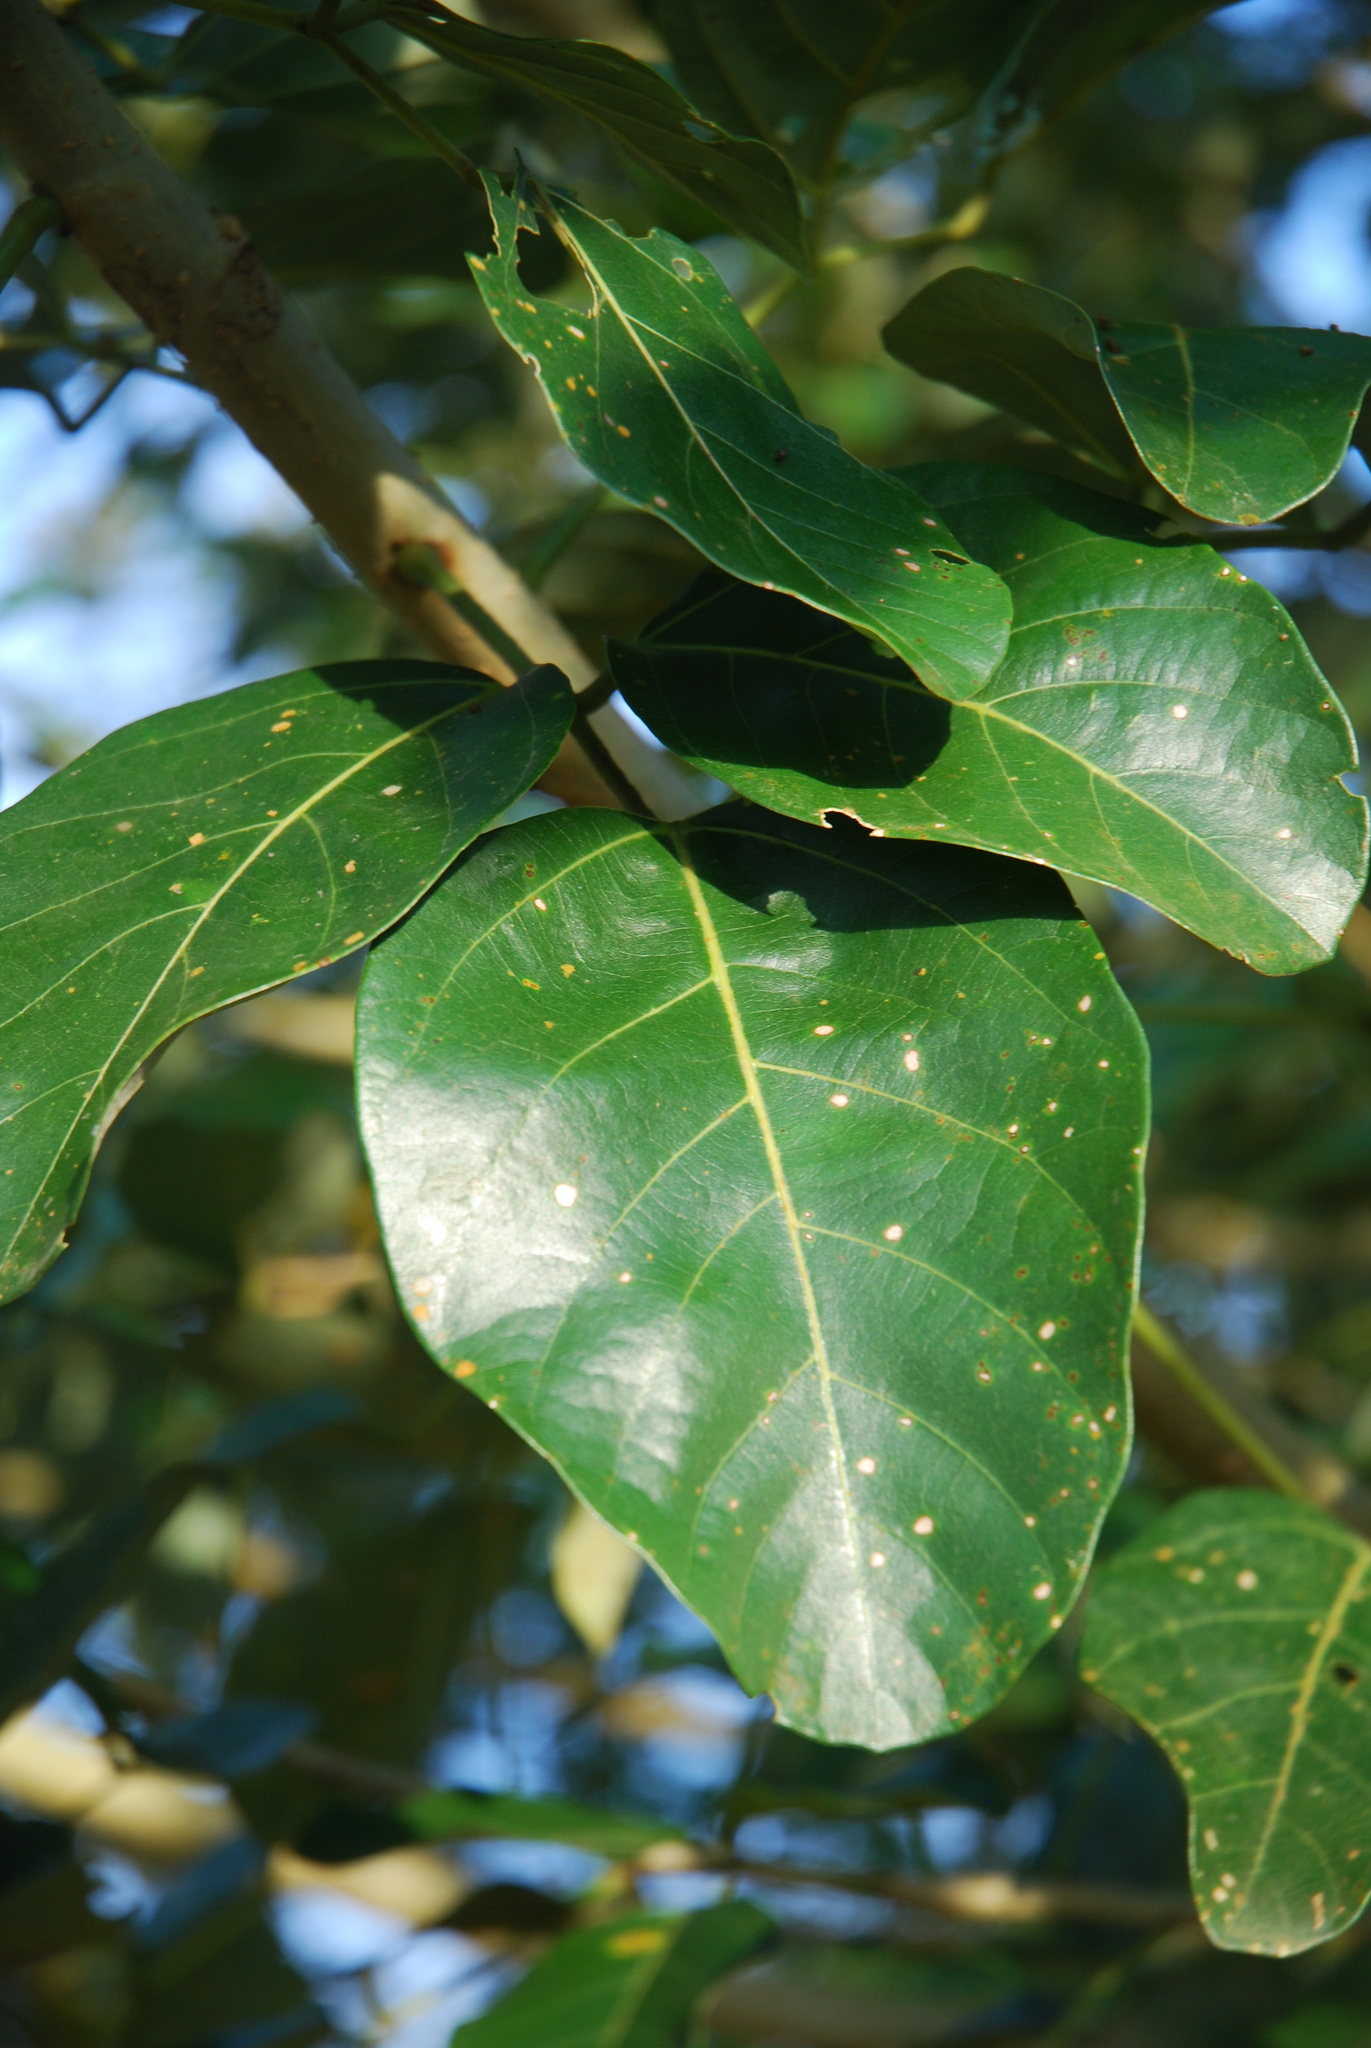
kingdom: Plantae
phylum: Tracheophyta
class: Magnoliopsida
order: Fabales
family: Fabaceae
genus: Erythrina
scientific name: Erythrina fusca
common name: Coral-bean
